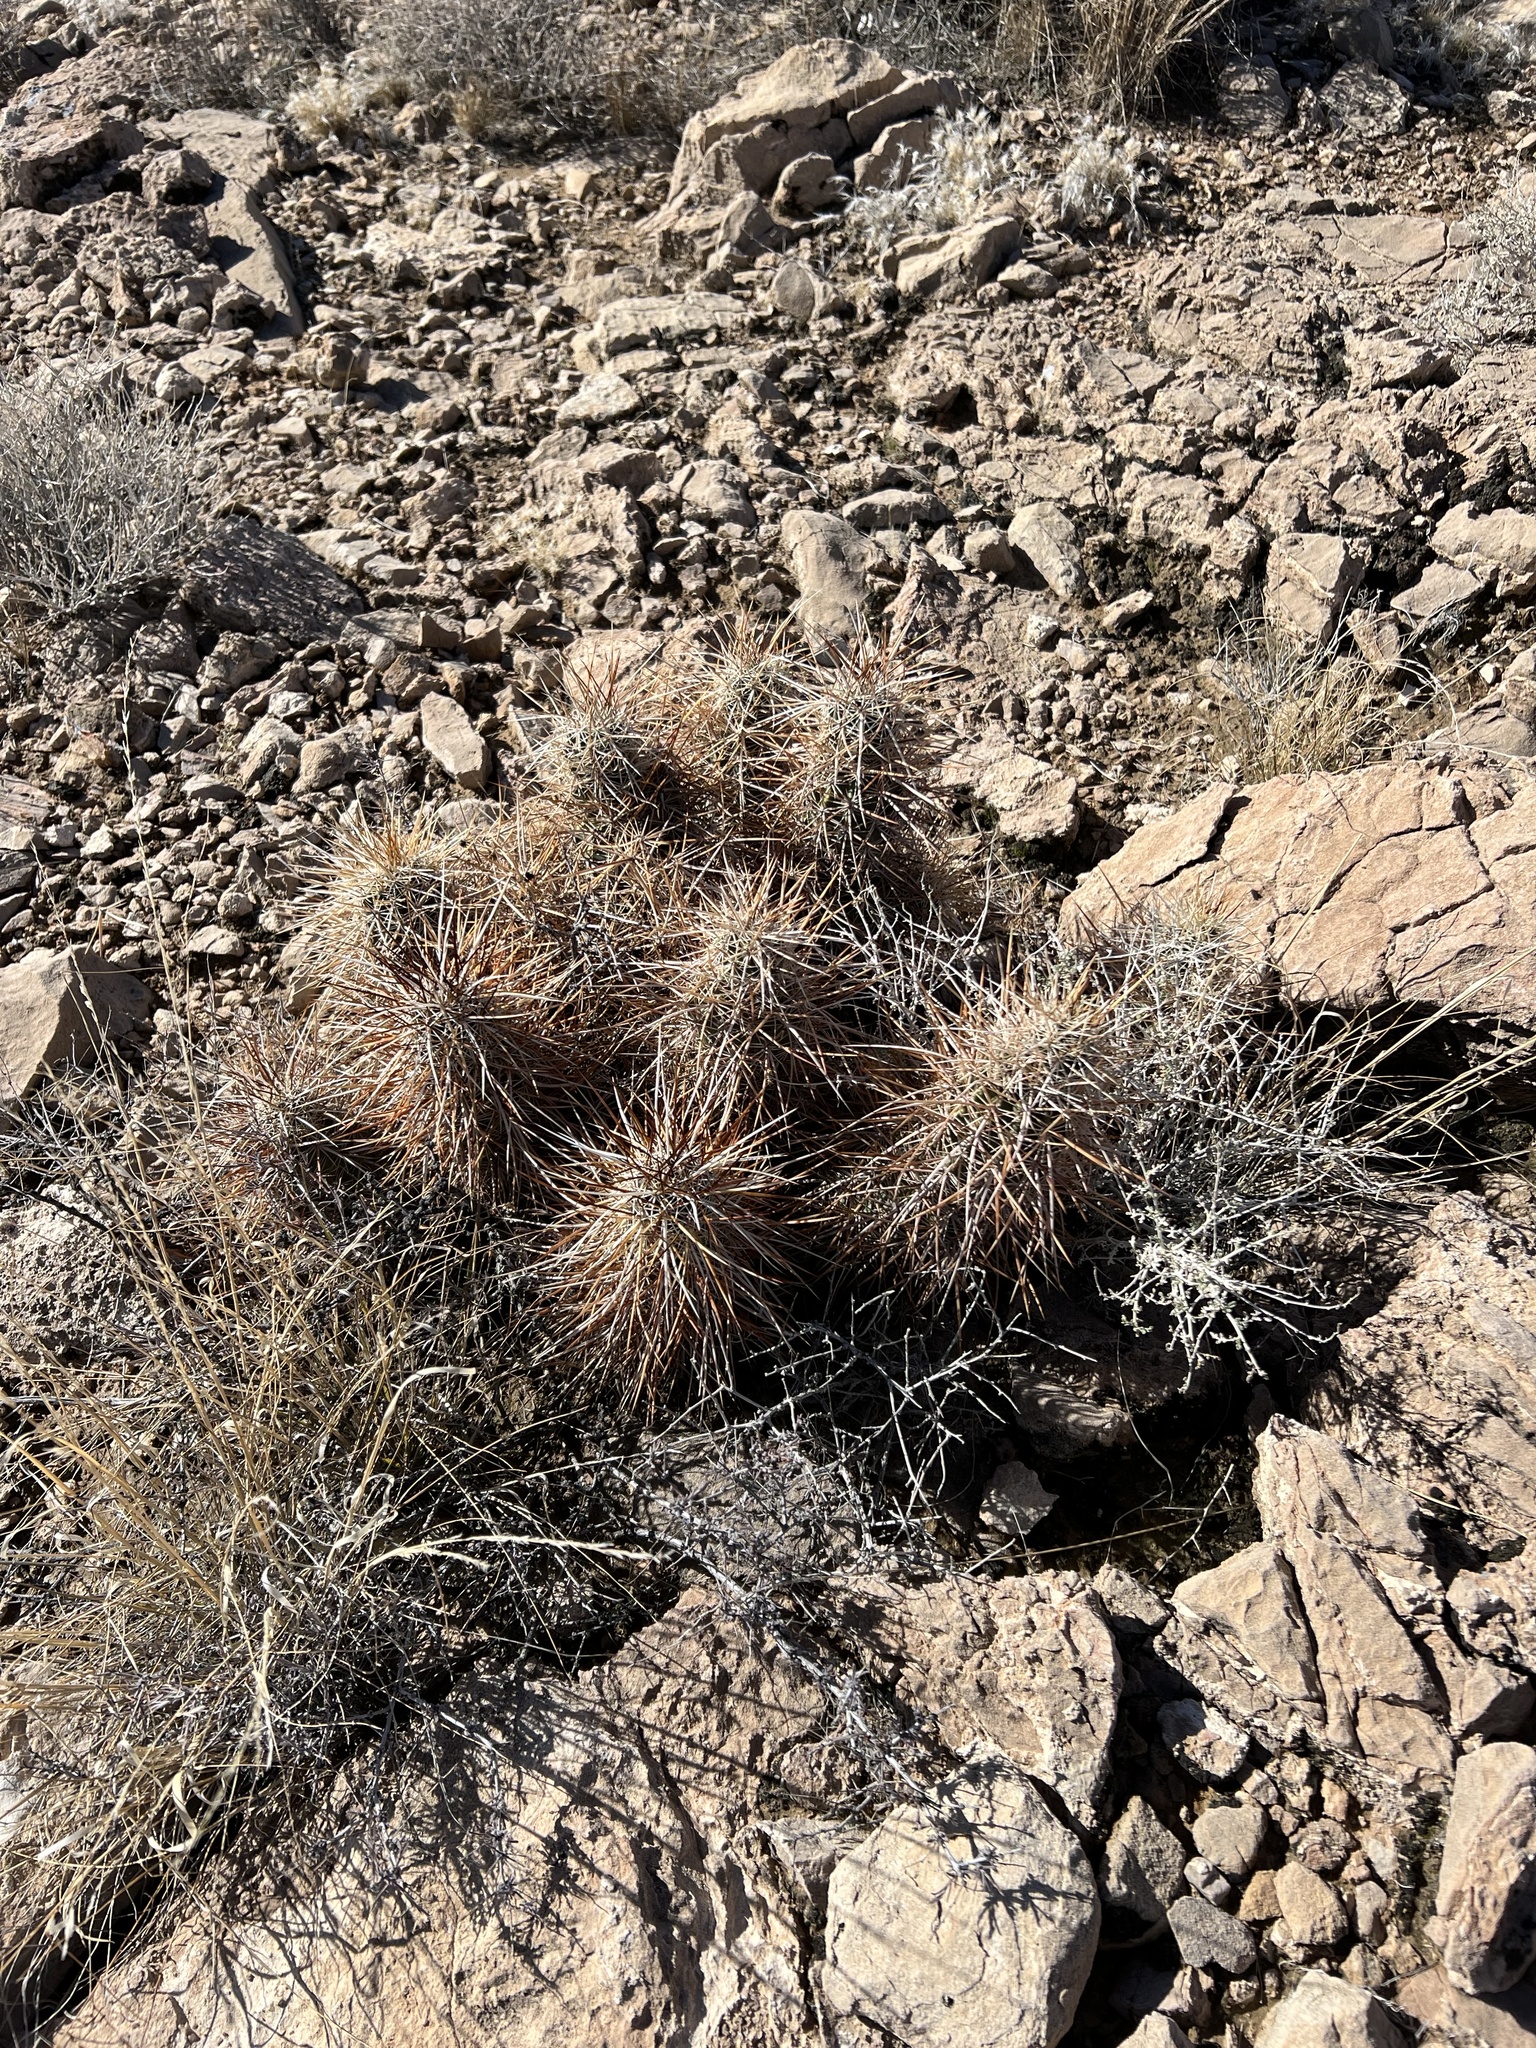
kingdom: Plantae
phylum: Tracheophyta
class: Magnoliopsida
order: Caryophyllales
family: Cactaceae
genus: Echinocereus
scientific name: Echinocereus engelmannii
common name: Engelmann's hedgehog cactus
